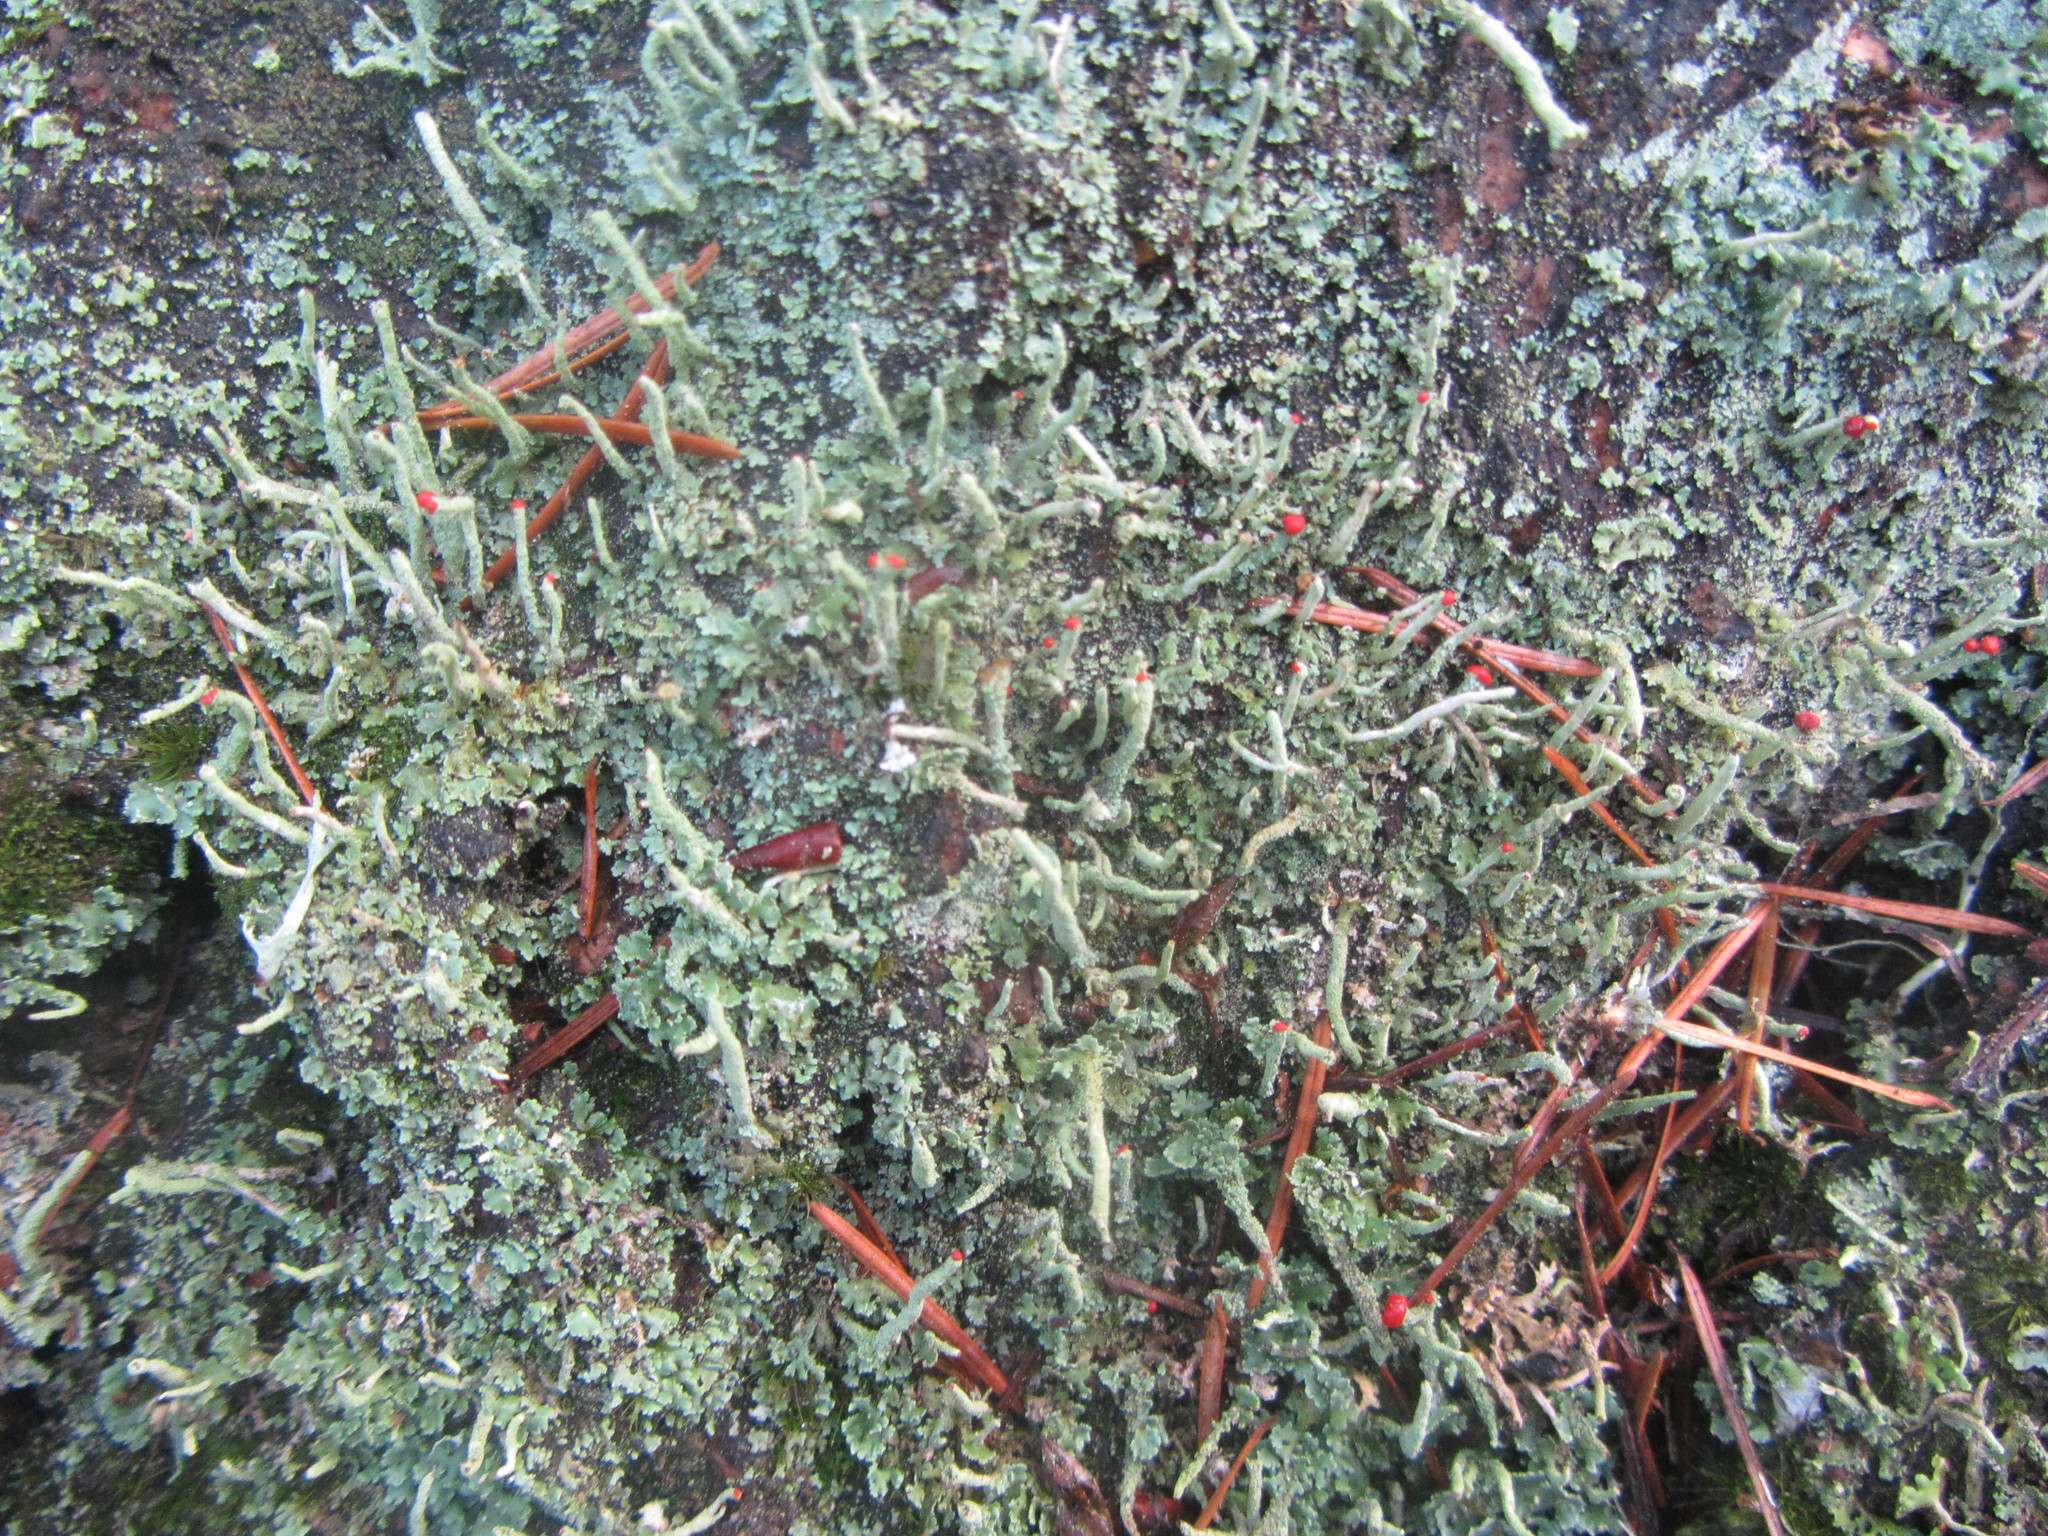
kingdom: Fungi
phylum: Ascomycota
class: Lecanoromycetes
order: Lecanorales
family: Cladoniaceae
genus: Cladonia
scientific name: Cladonia macilenta
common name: Lipstick powderhorn
